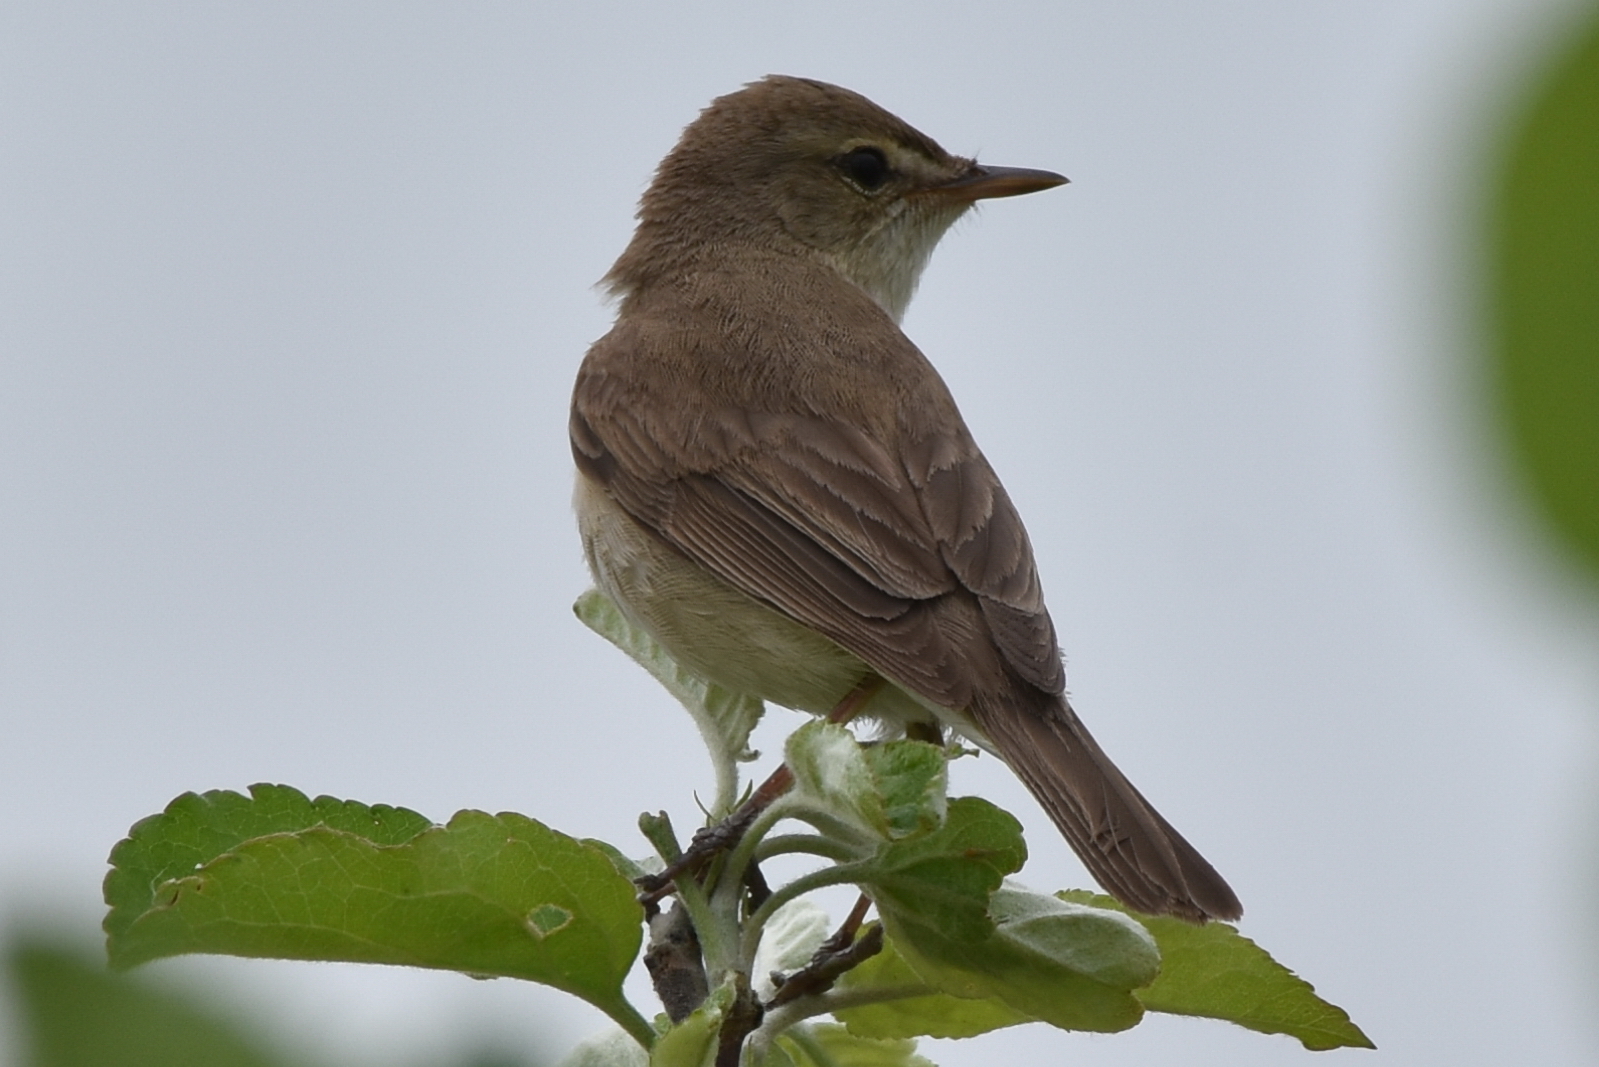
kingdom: Animalia
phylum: Chordata
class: Aves
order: Passeriformes
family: Acrocephalidae
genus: Iduna
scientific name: Iduna caligata
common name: Booted warbler
